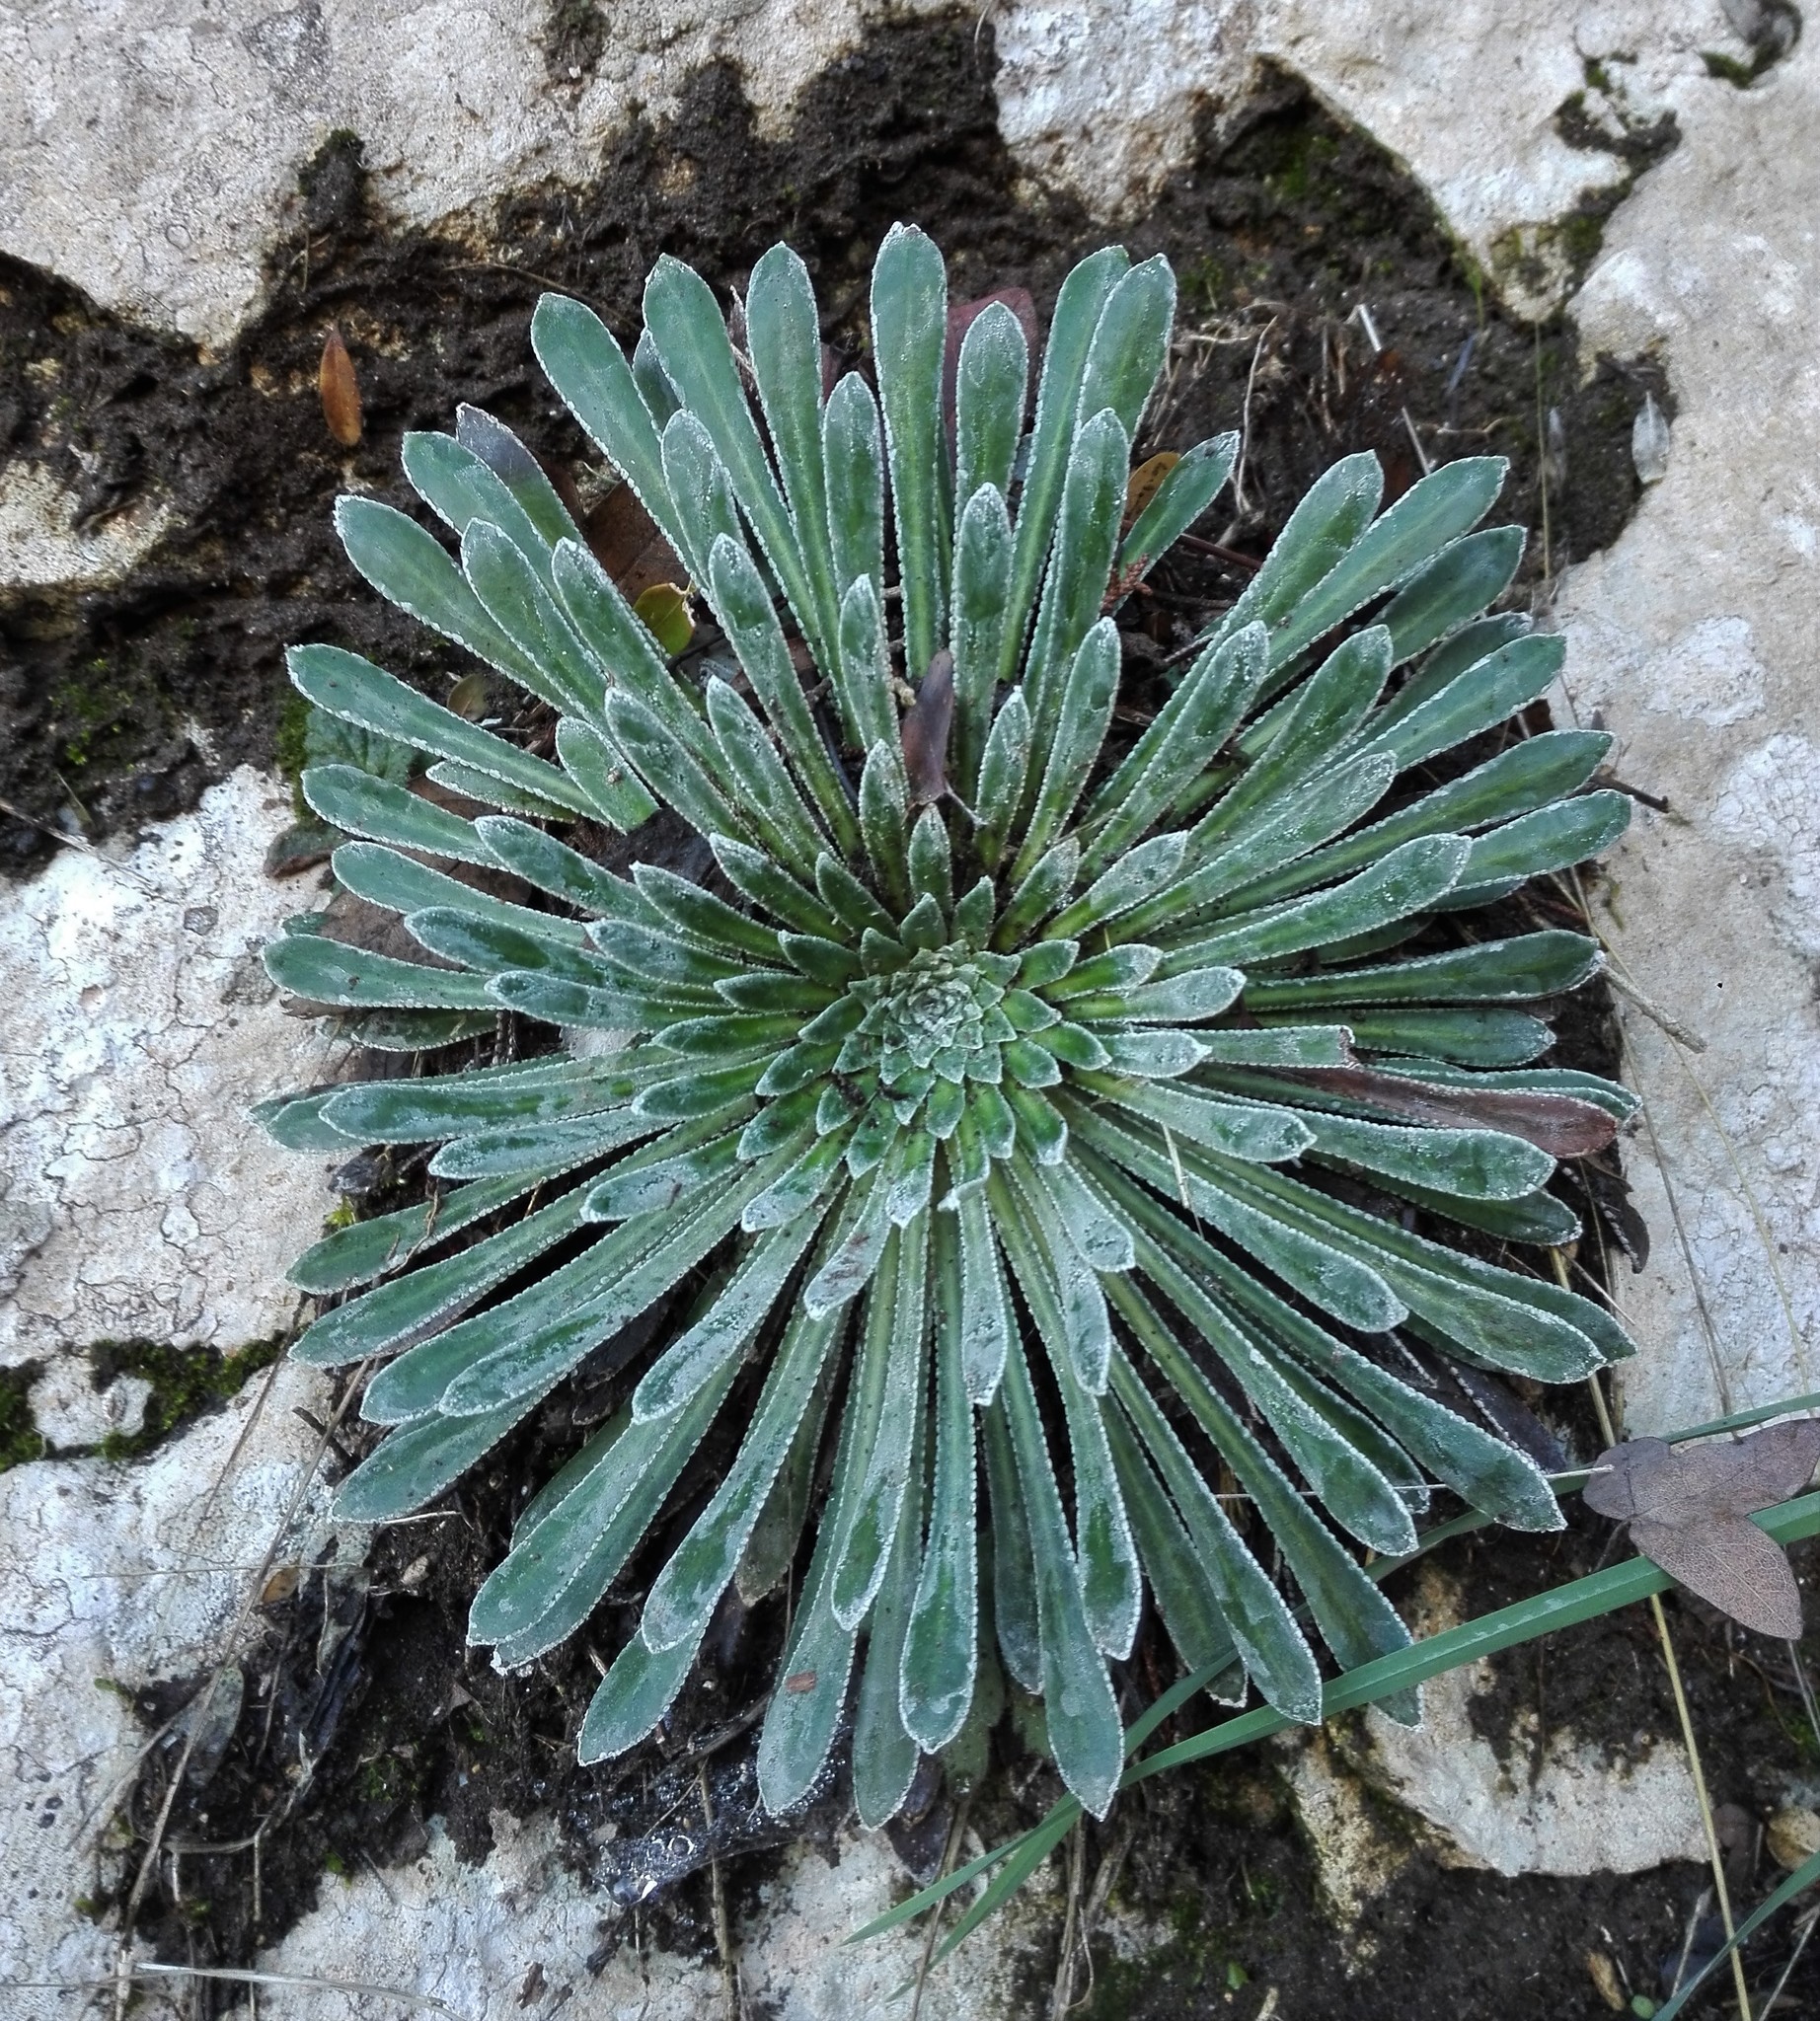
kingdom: Plantae
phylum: Tracheophyta
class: Magnoliopsida
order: Saxifragales
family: Saxifragaceae
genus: Saxifraga
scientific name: Saxifraga longifolia
